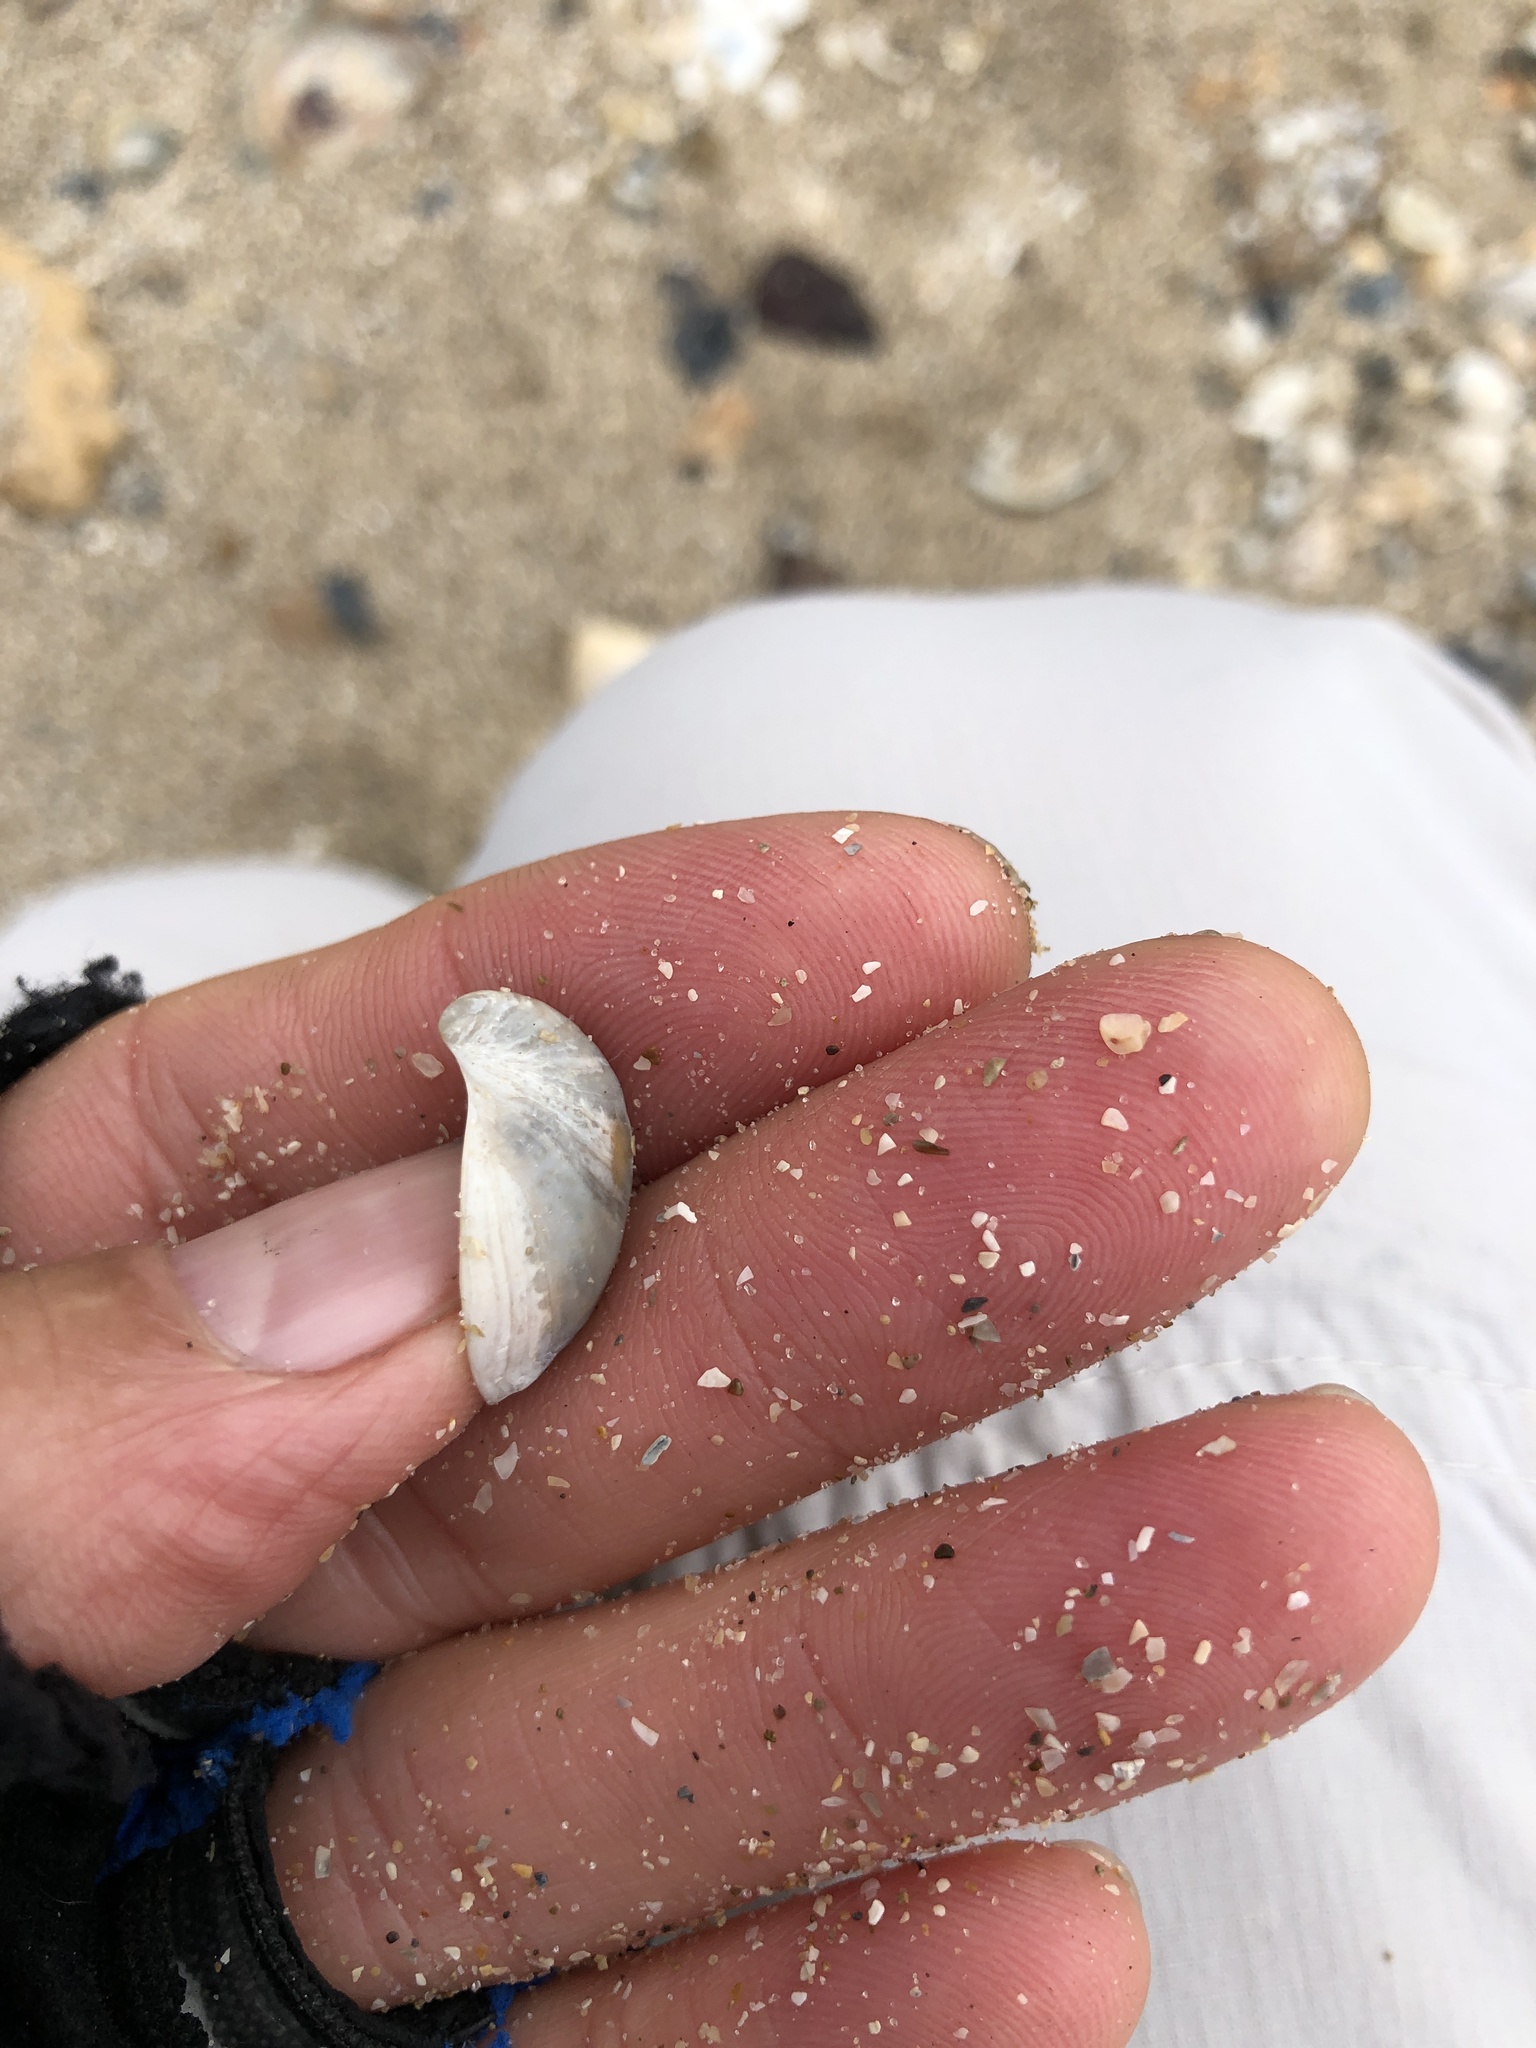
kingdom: Animalia
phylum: Mollusca
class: Gastropoda
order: Littorinimorpha
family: Calyptraeidae
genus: Crepidula
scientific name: Crepidula fornicata
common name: Slipper limpet
